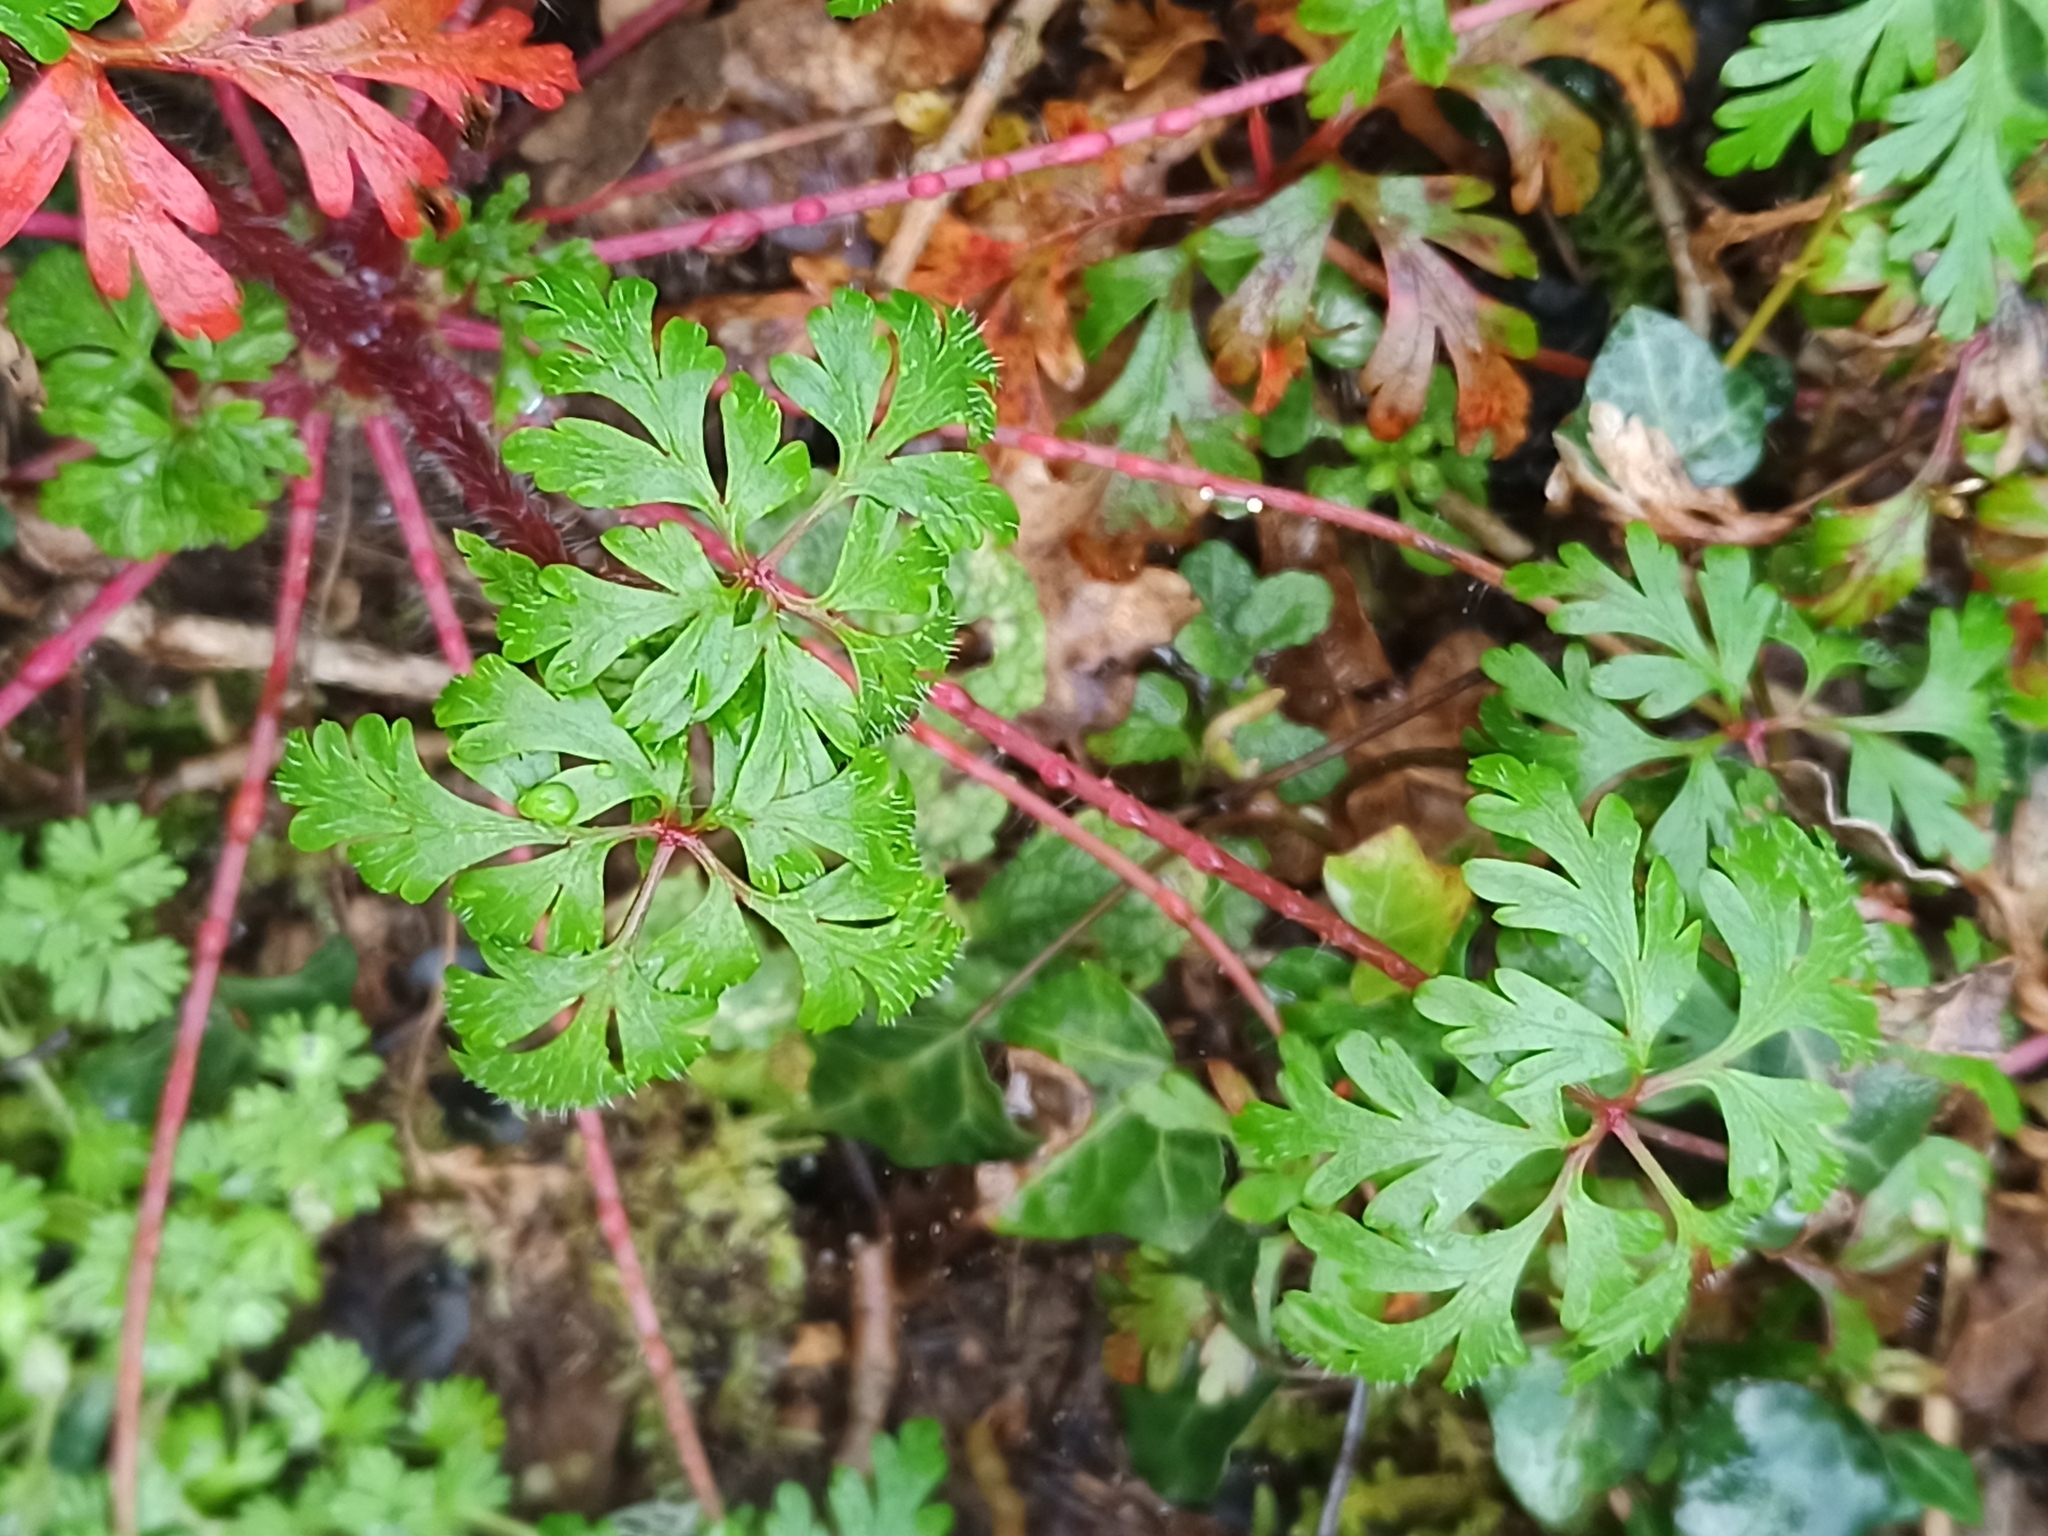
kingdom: Plantae
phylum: Tracheophyta
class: Magnoliopsida
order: Geraniales
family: Geraniaceae
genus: Geranium
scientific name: Geranium robertianum
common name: Herb-robert
